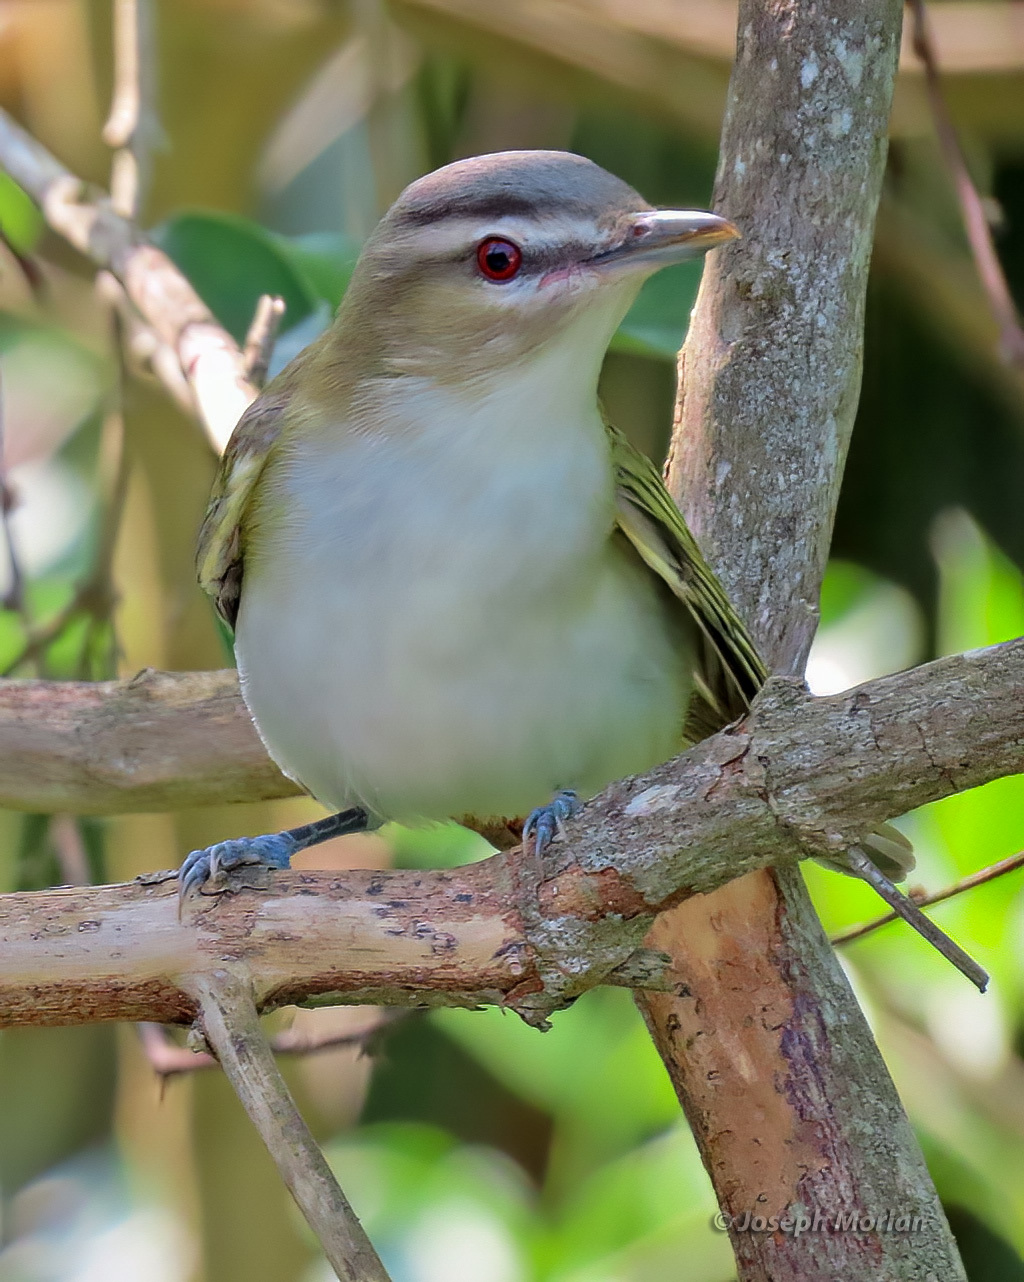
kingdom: Animalia
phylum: Chordata
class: Aves
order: Passeriformes
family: Vireonidae
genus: Vireo
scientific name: Vireo olivaceus
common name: Red-eyed vireo
